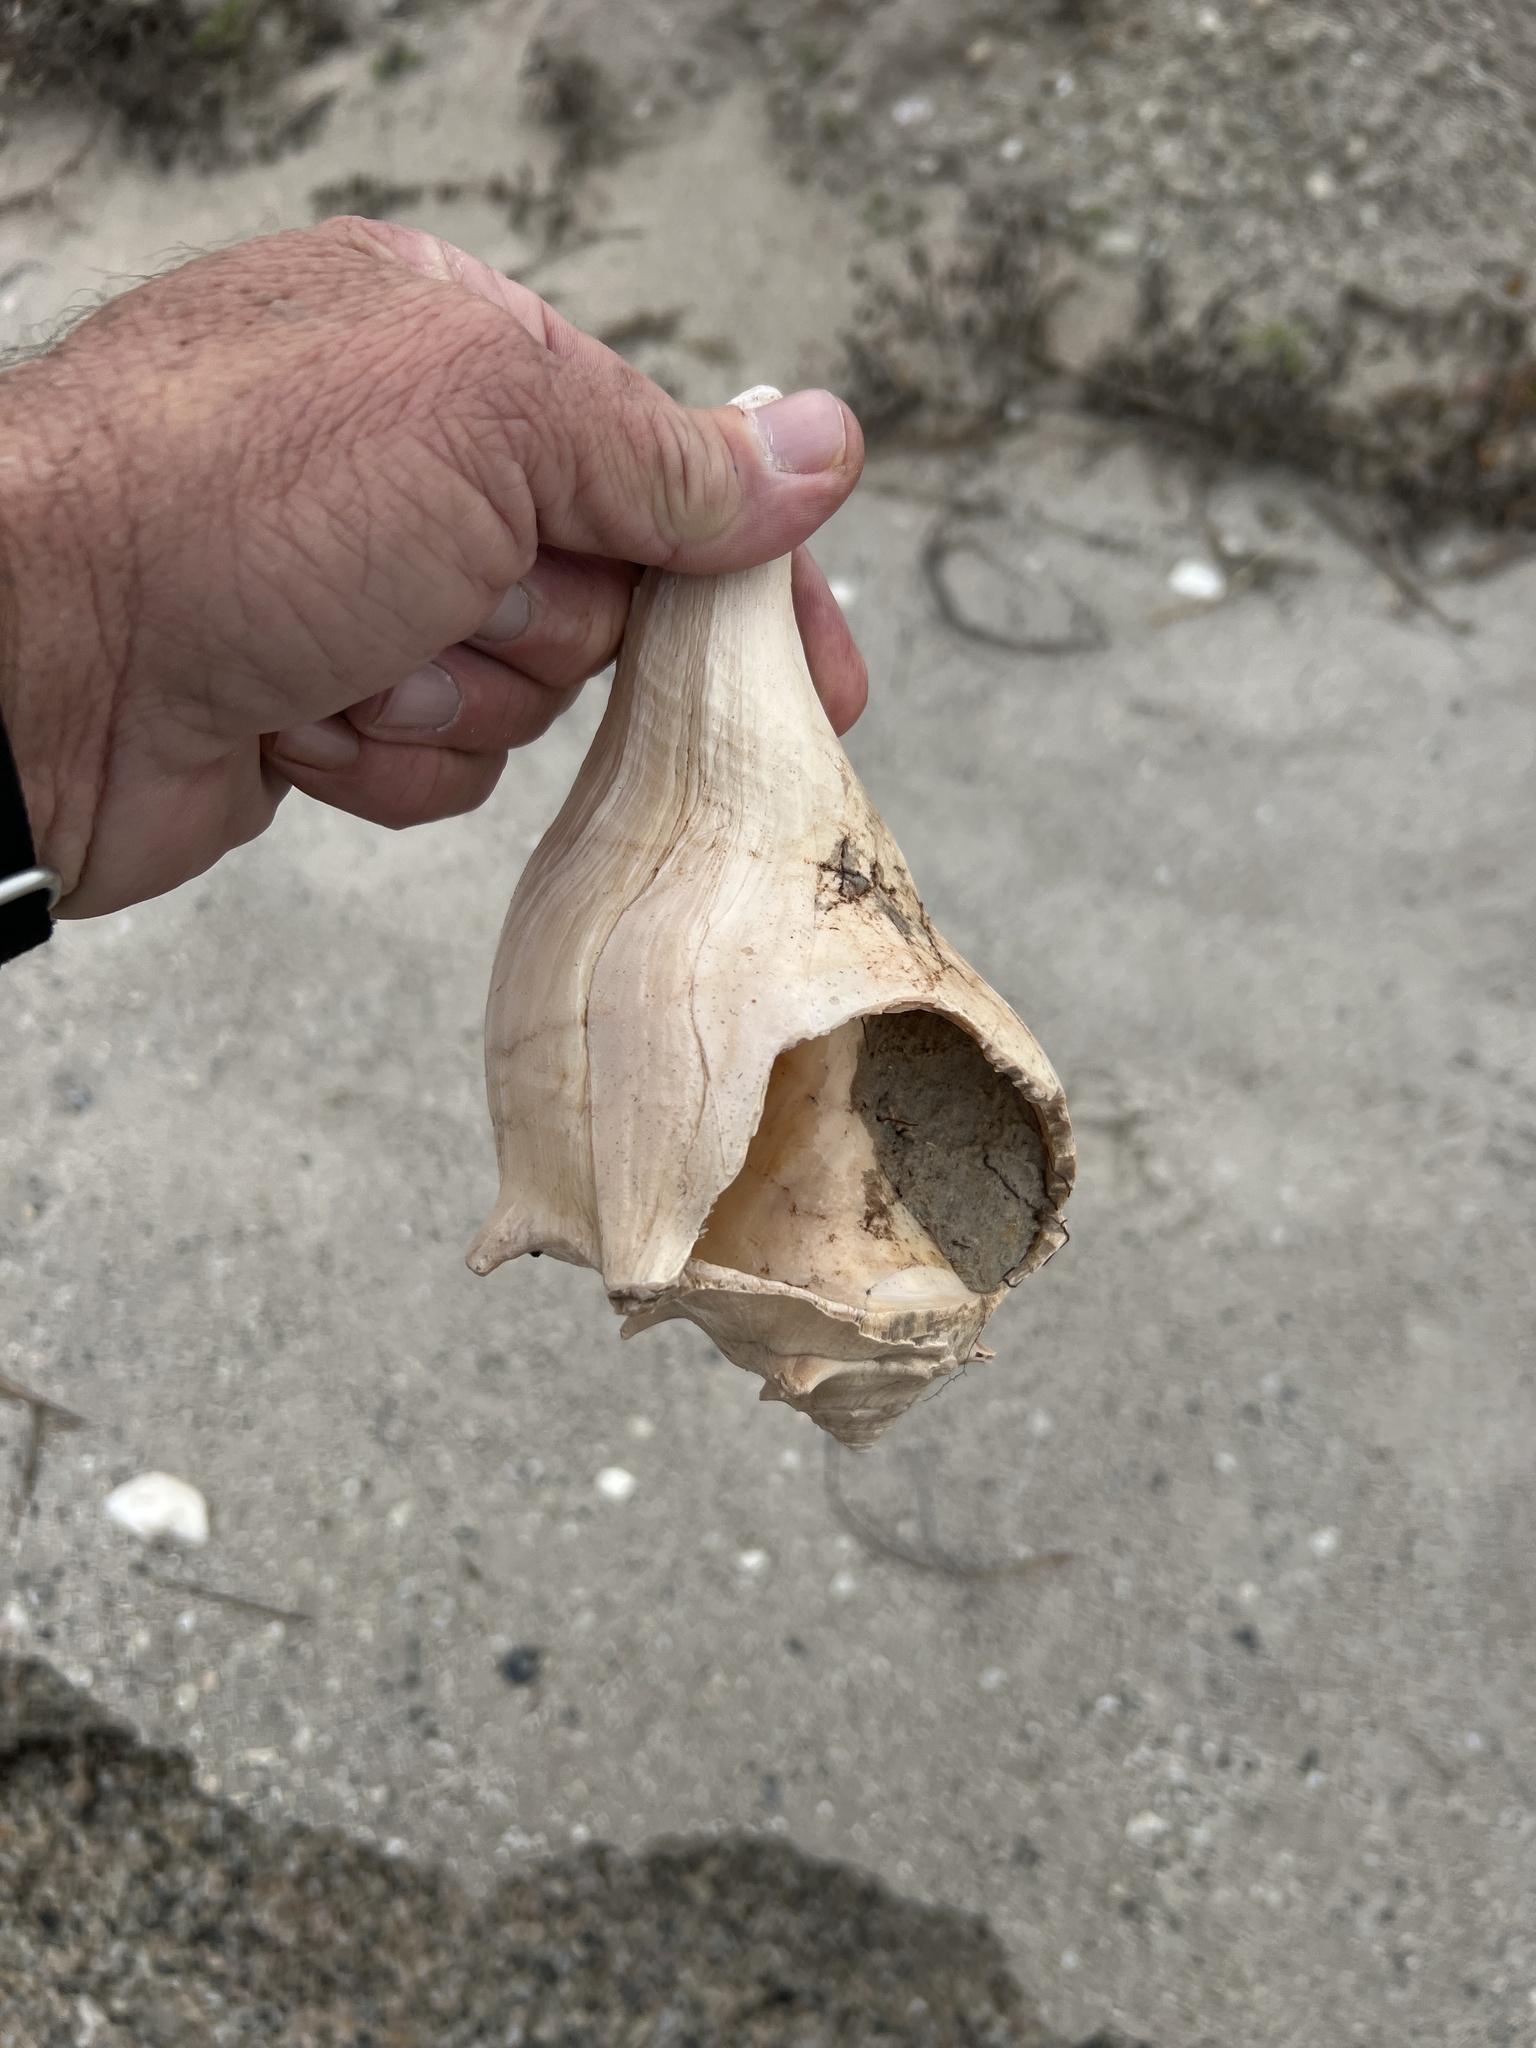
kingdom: Animalia
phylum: Mollusca
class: Gastropoda
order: Neogastropoda
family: Busyconidae
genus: Sinistrofulgur
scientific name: Sinistrofulgur pulleyi
